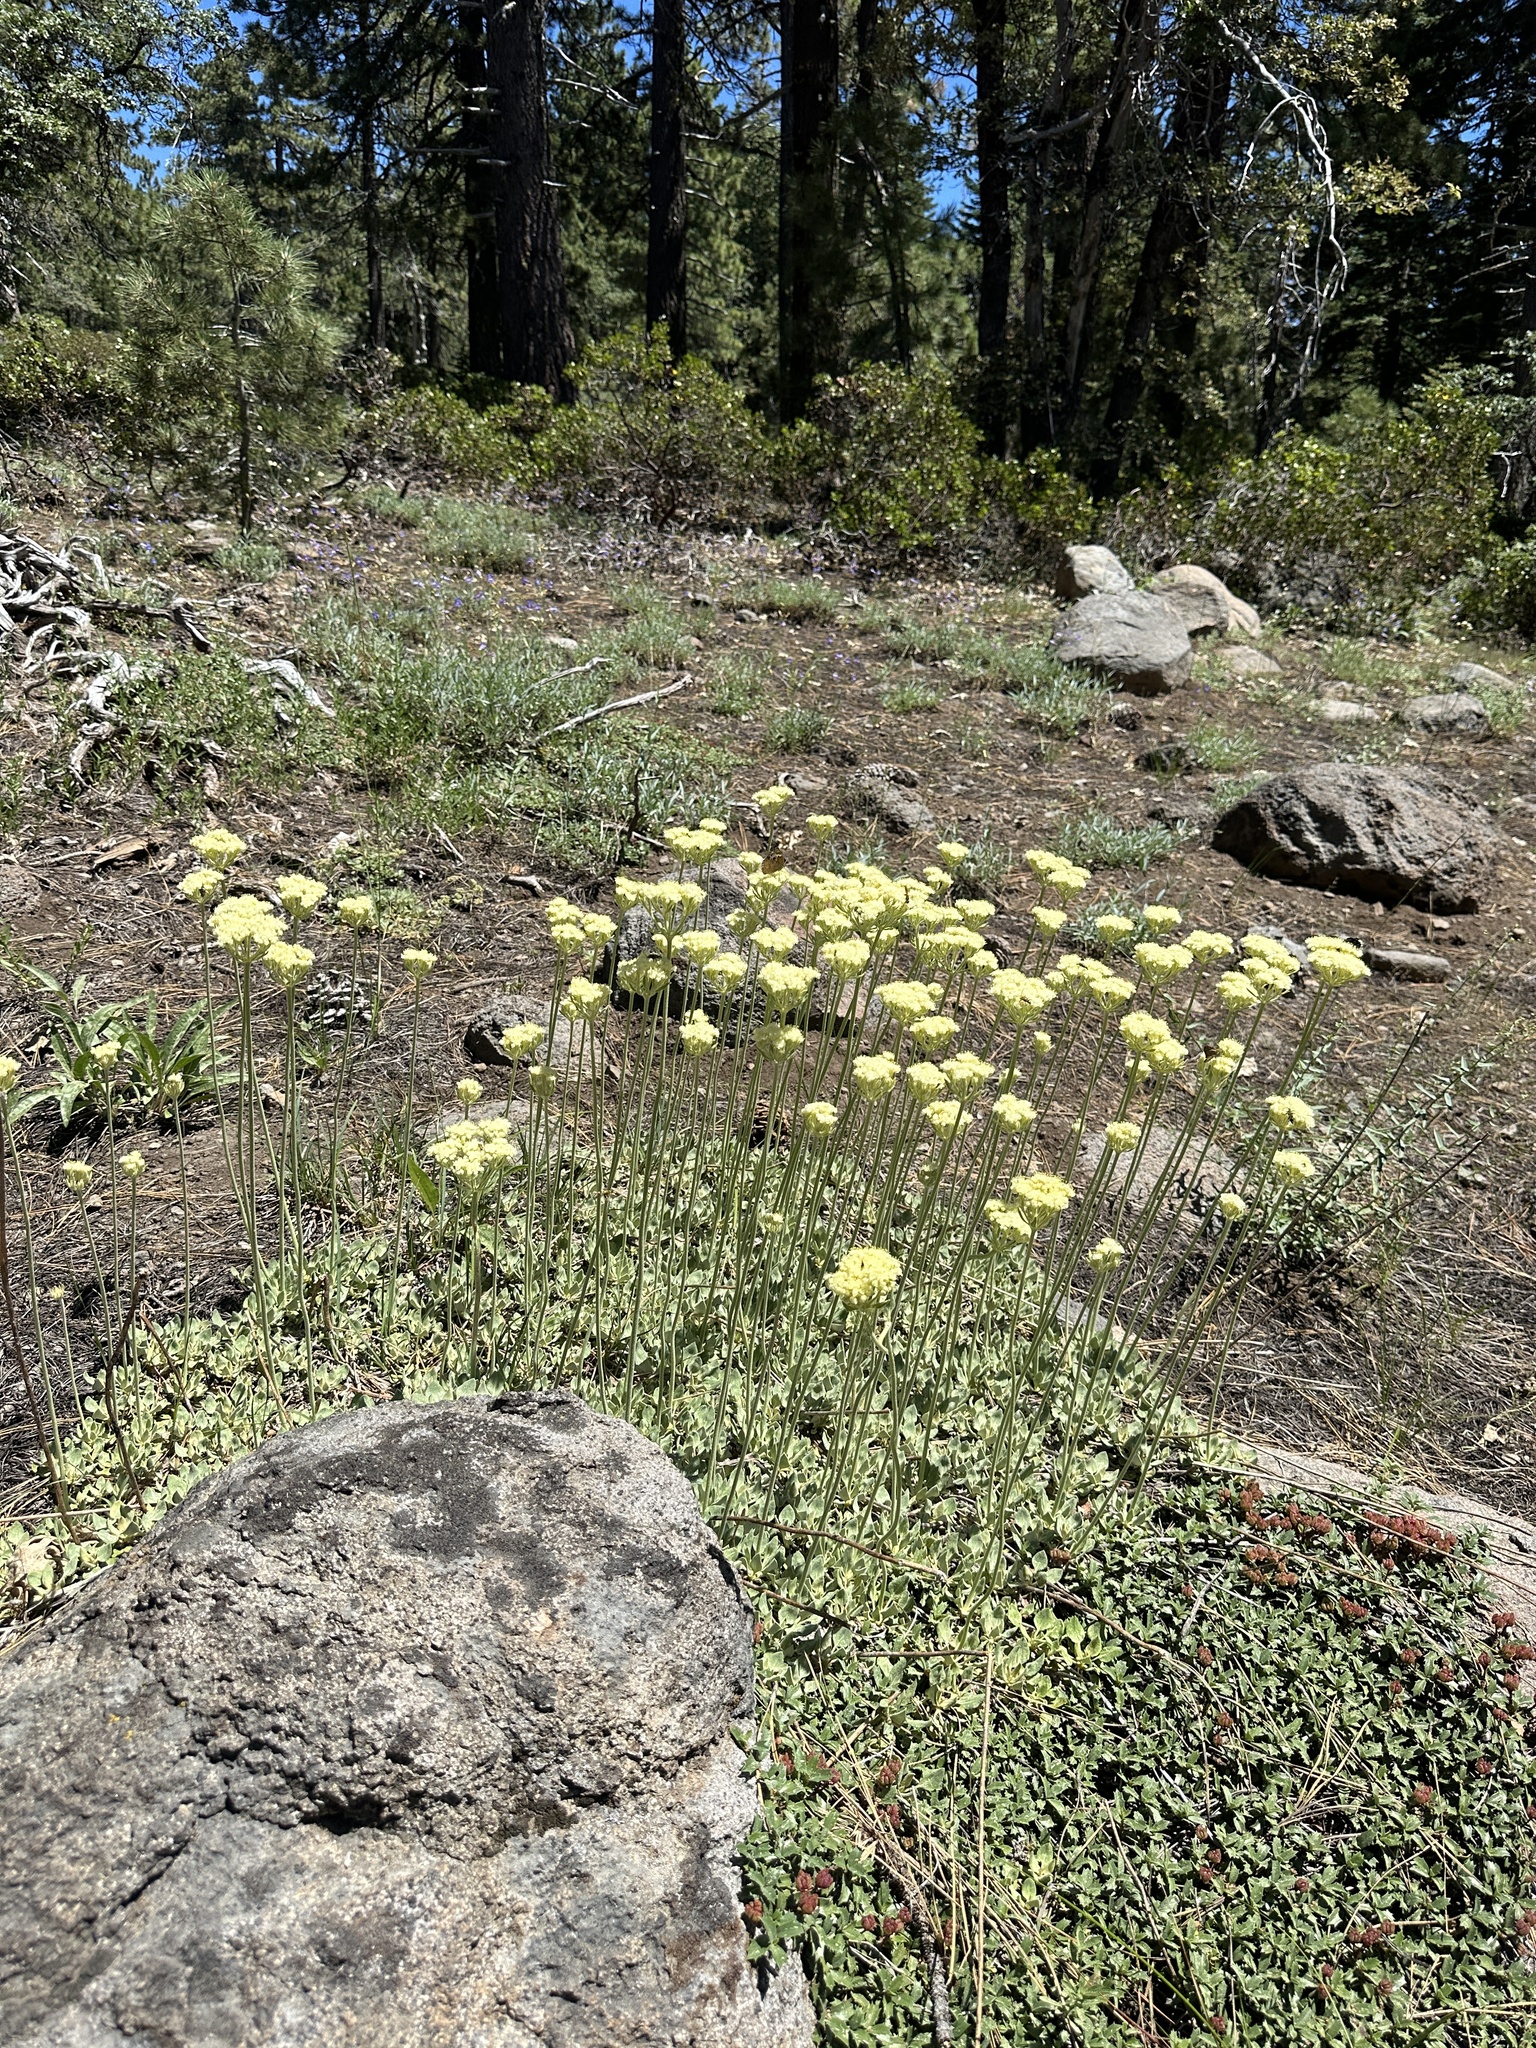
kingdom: Plantae
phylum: Tracheophyta
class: Magnoliopsida
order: Caryophyllales
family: Polygonaceae
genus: Eriogonum
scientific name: Eriogonum ursinum
